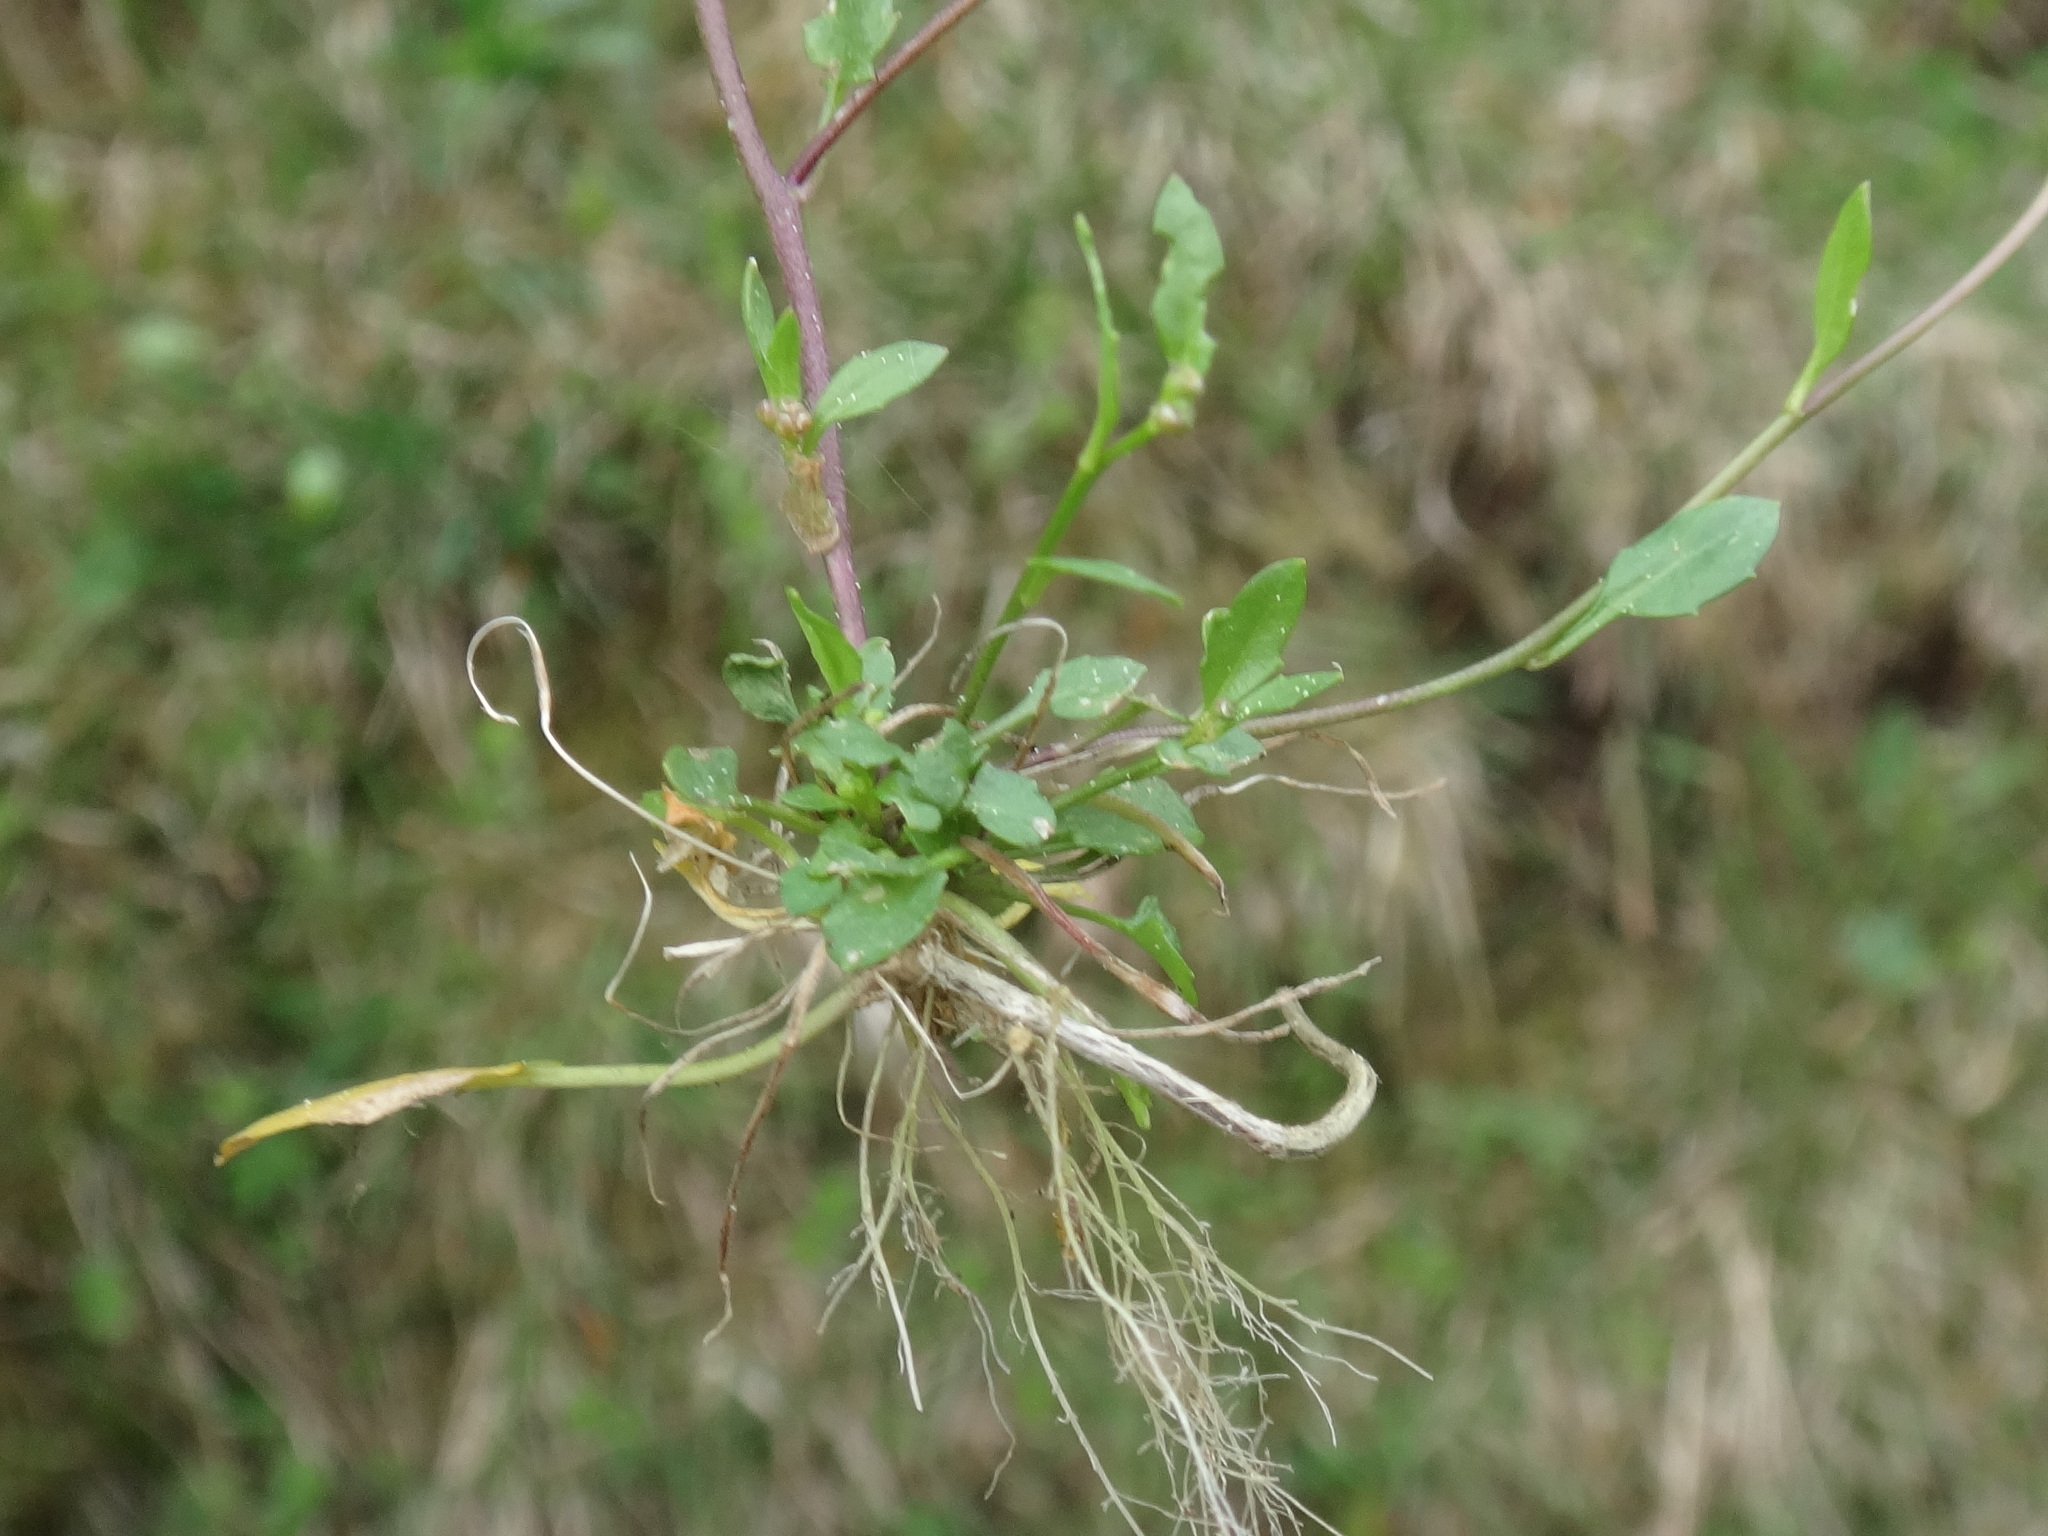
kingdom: Plantae
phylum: Tracheophyta
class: Magnoliopsida
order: Brassicales
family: Brassicaceae
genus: Arabidopsis
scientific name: Arabidopsis halleri
